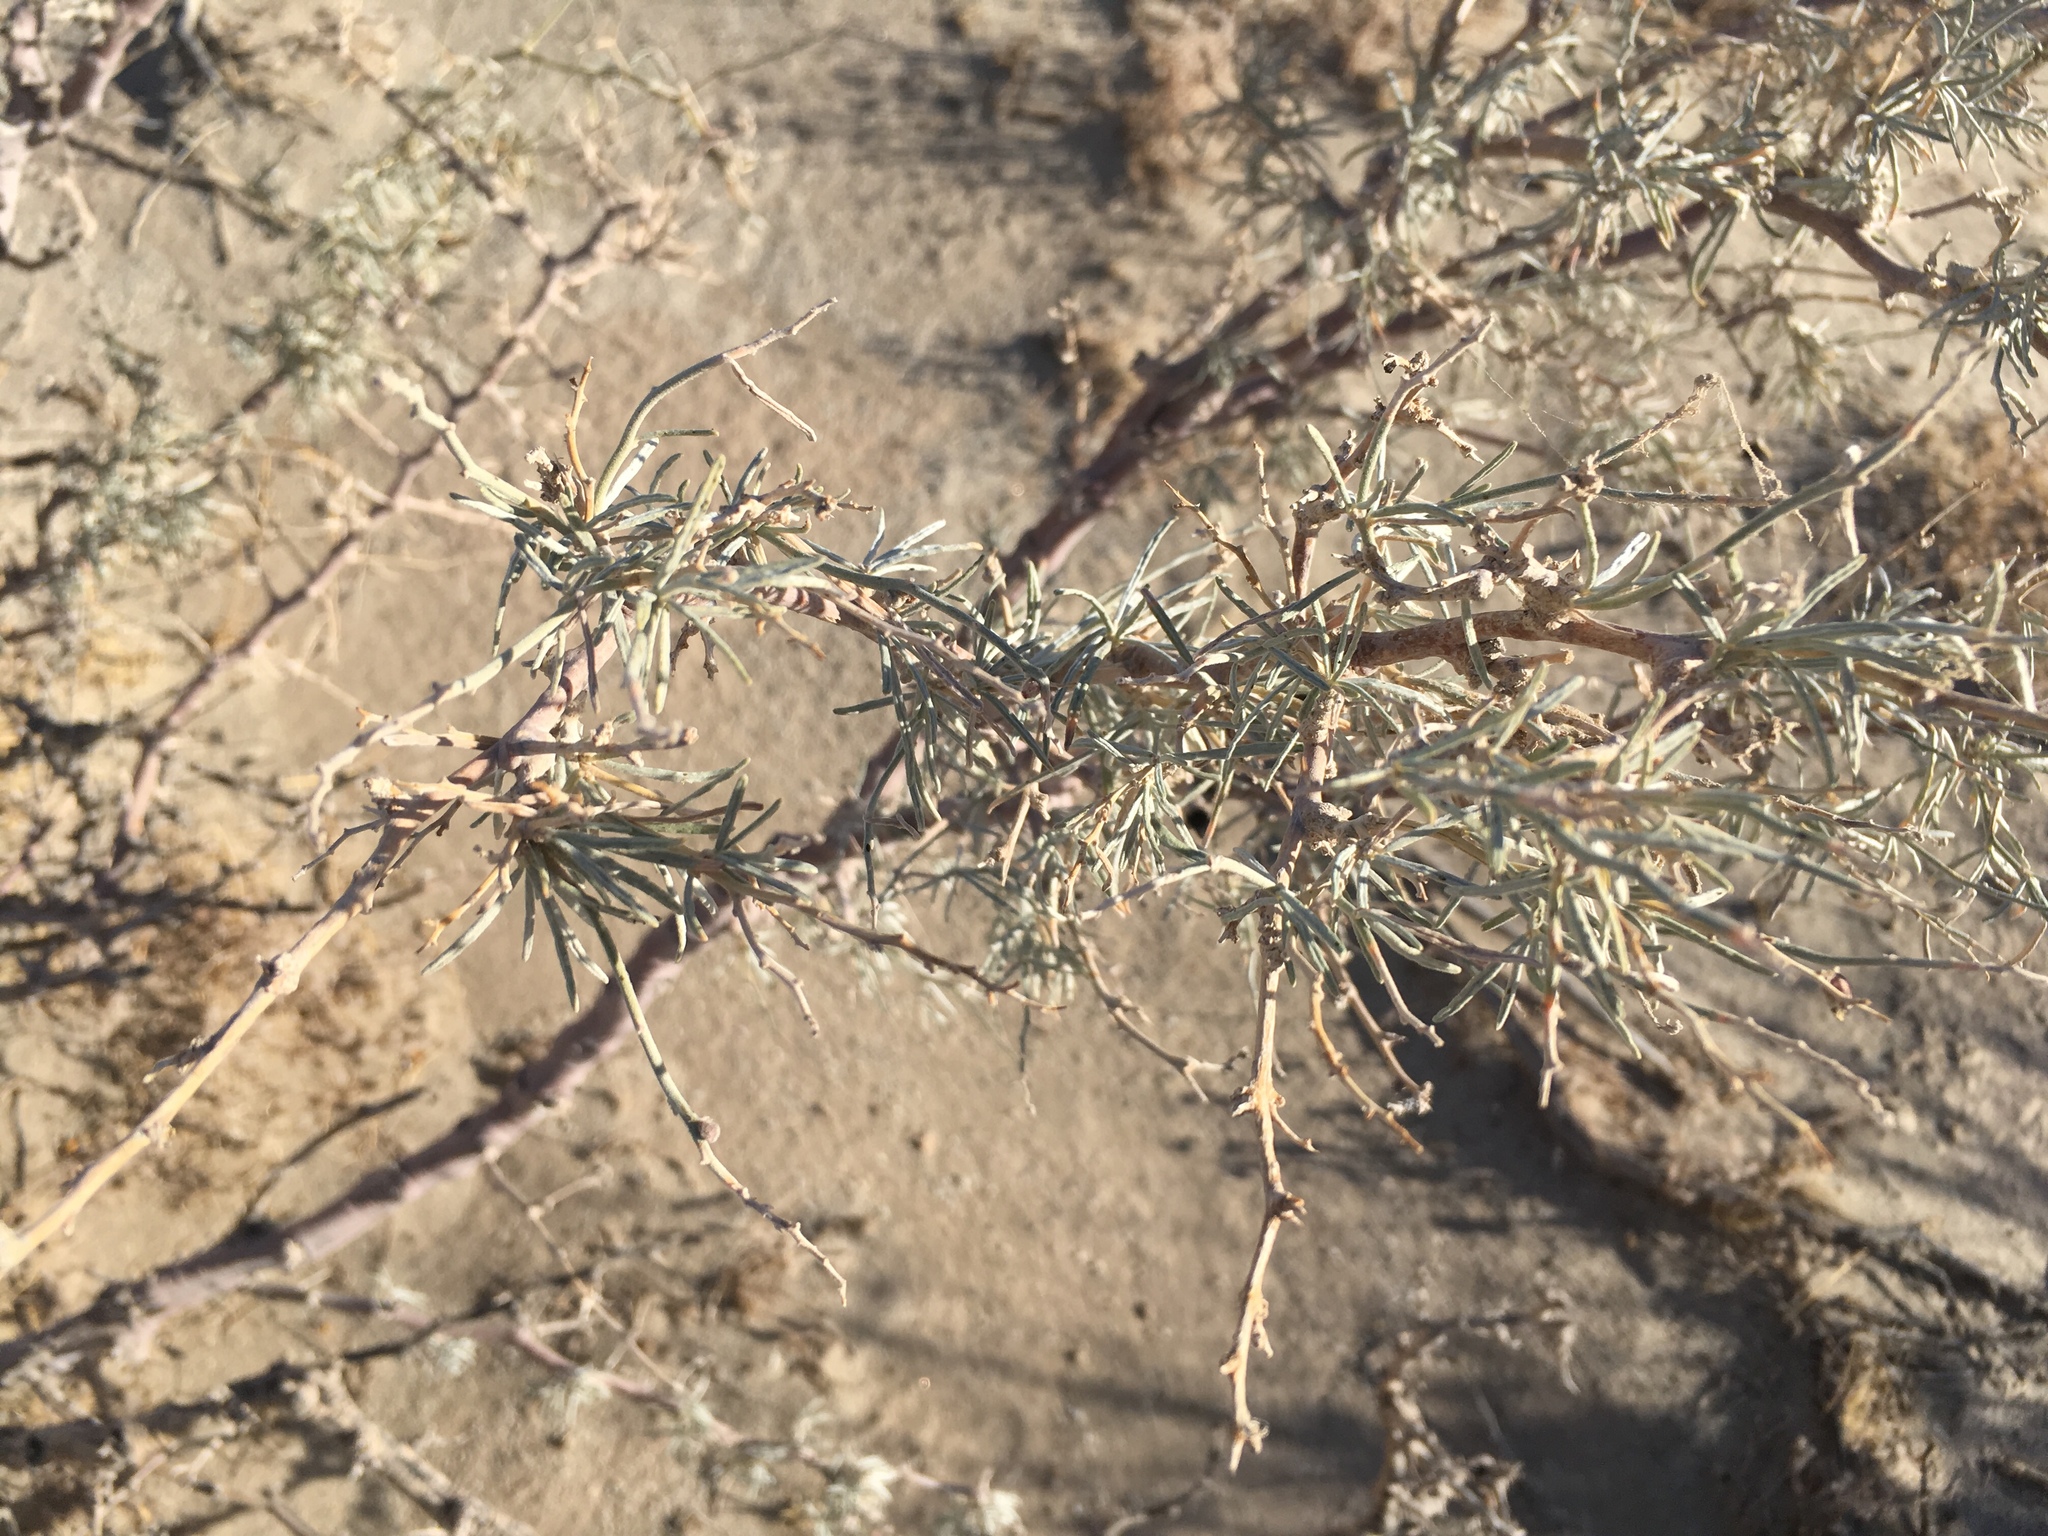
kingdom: Plantae
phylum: Tracheophyta
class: Magnoliopsida
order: Fabales
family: Fabaceae
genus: Psorothamnus
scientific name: Psorothamnus schottii
